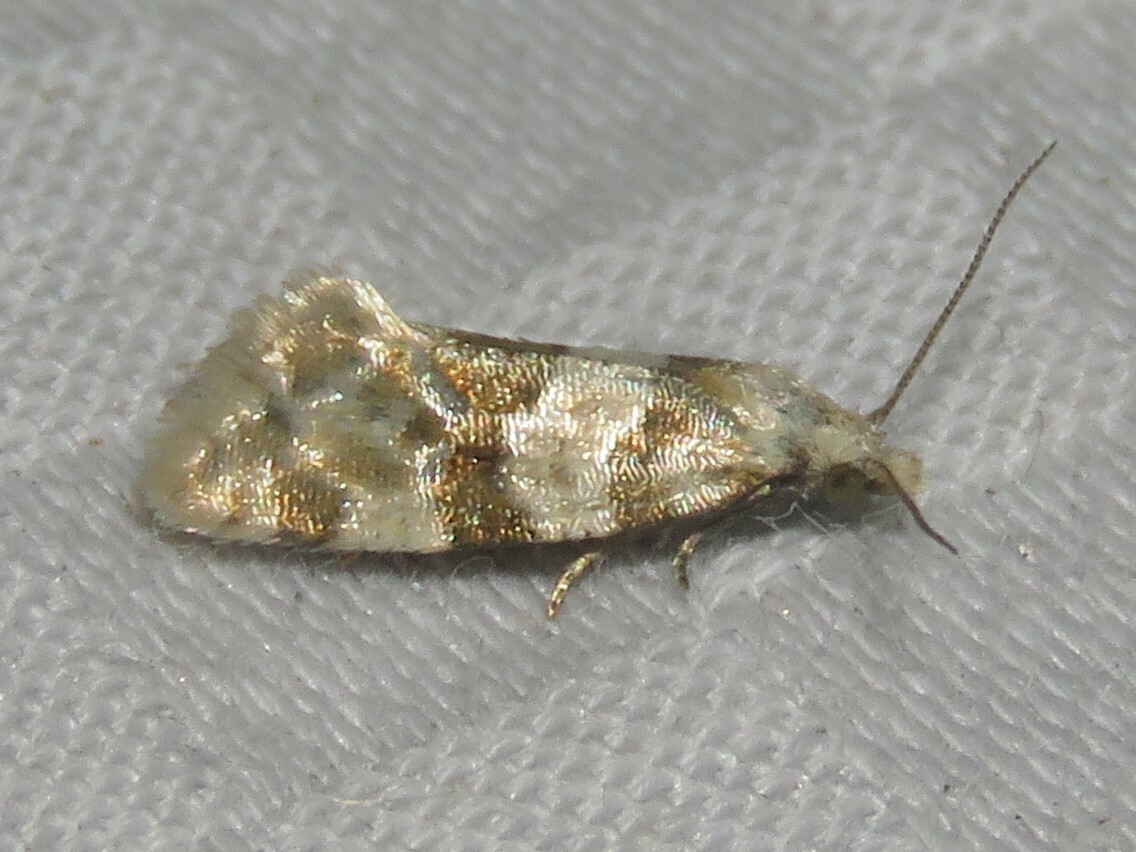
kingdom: Animalia
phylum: Arthropoda
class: Insecta
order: Lepidoptera
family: Tortricidae
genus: Aethes
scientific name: Aethes argentilimitana
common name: Silver-bordered aethes
